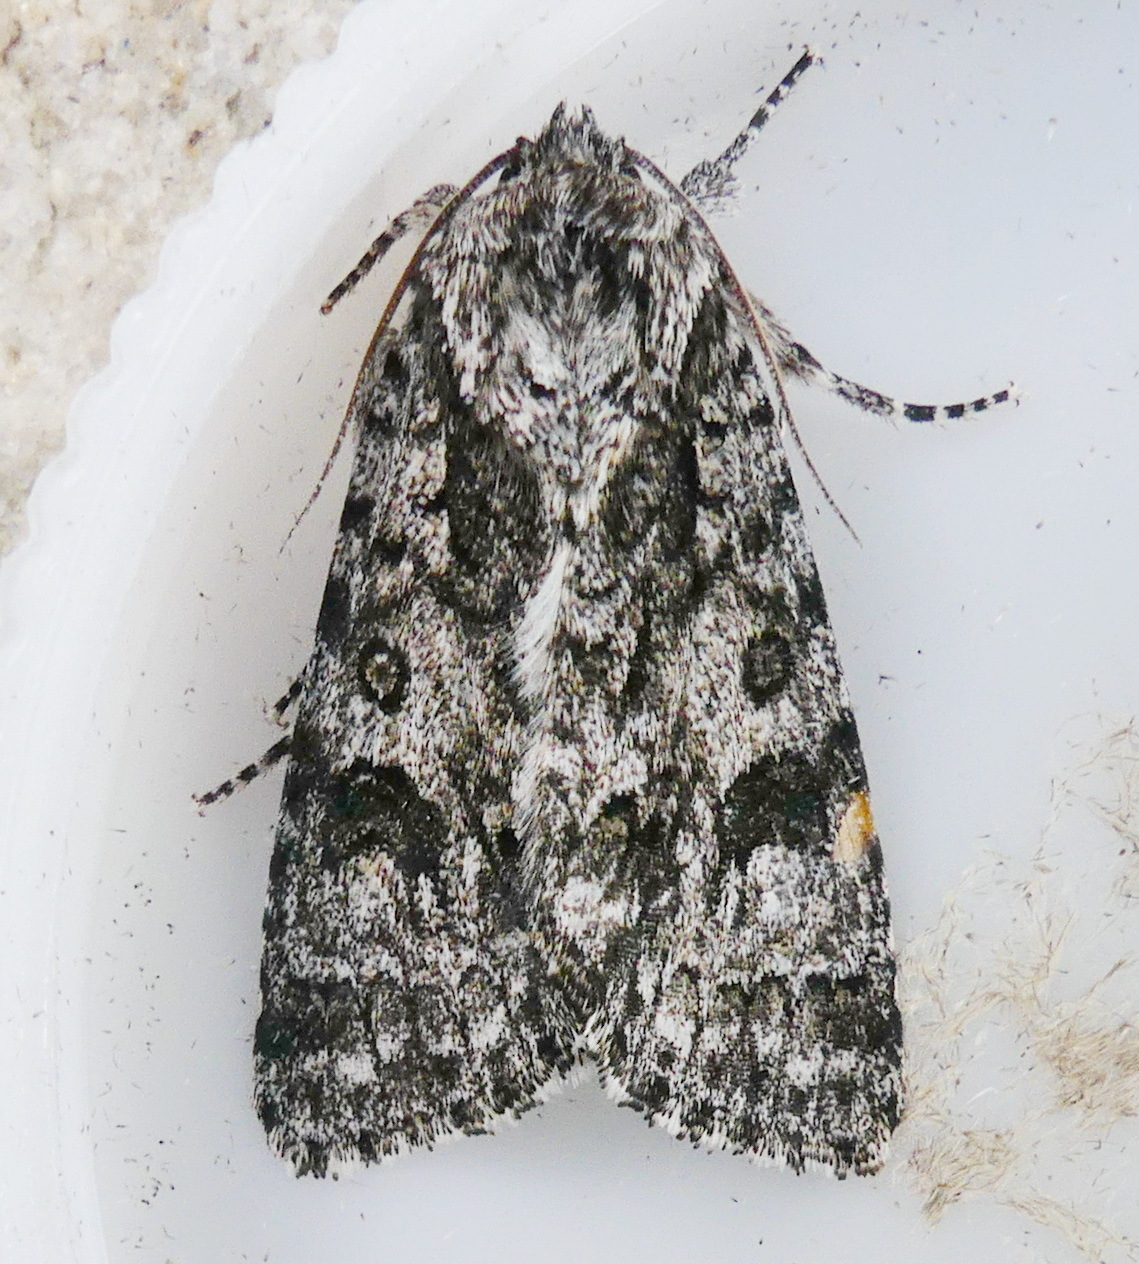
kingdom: Animalia
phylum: Arthropoda
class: Insecta
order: Lepidoptera
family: Noctuidae
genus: Acronicta
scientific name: Acronicta impressa
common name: Impressed dagger
